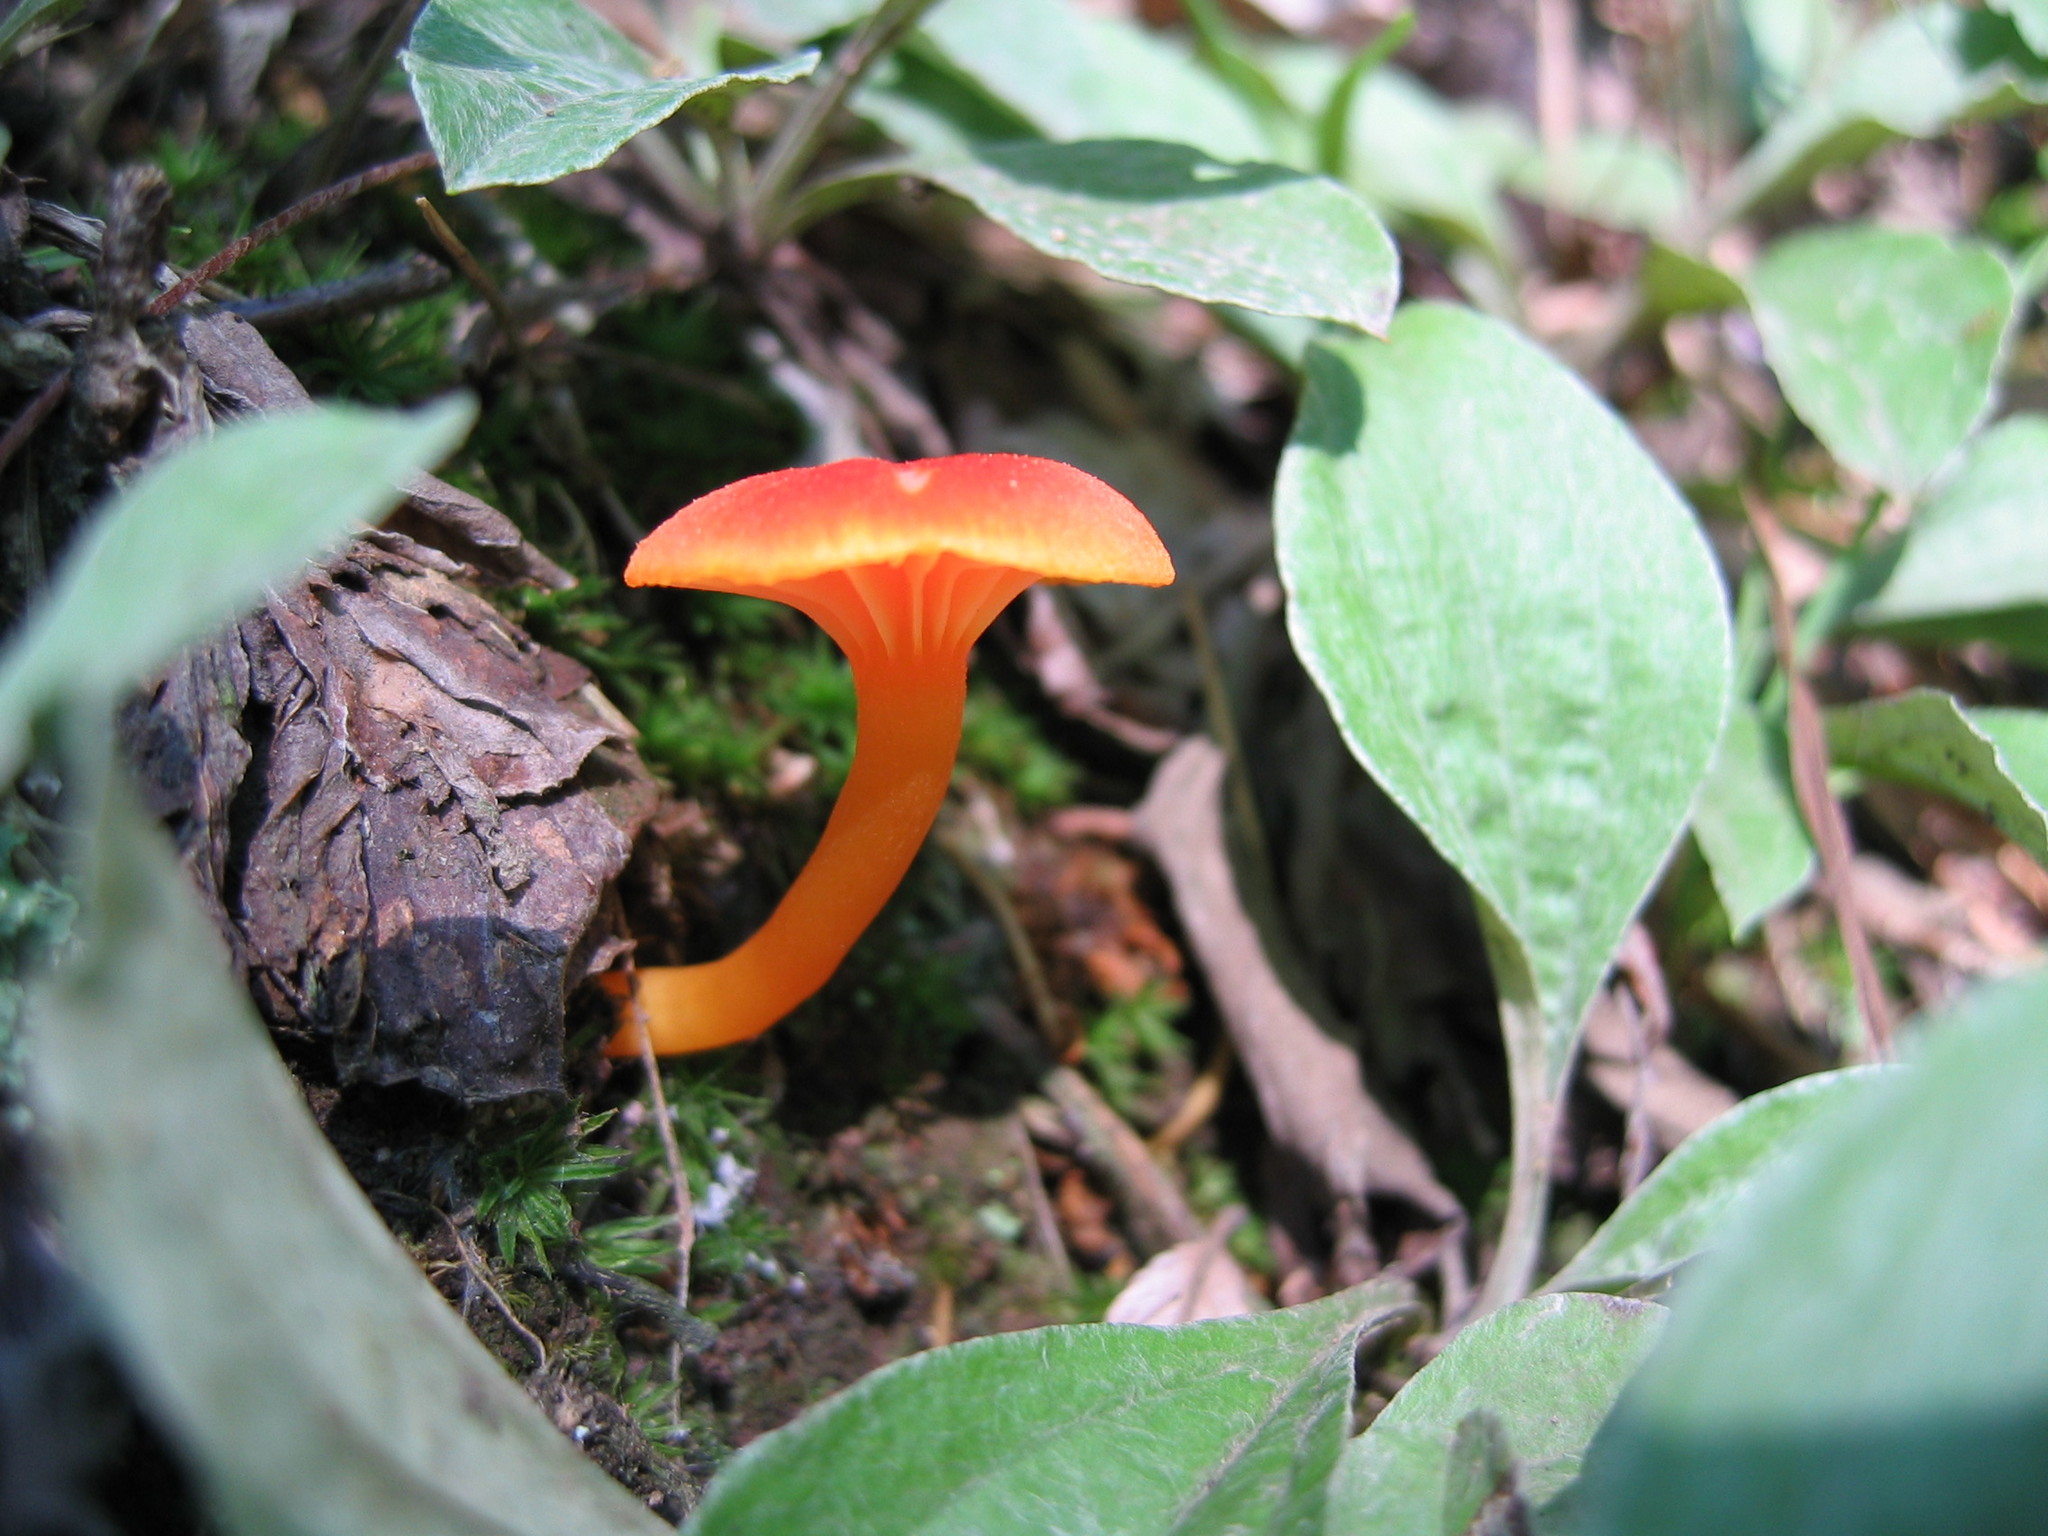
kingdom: Fungi
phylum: Basidiomycota
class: Agaricomycetes
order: Agaricales
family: Hygrophoraceae
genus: Hygrocybe
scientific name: Hygrocybe cantharellus
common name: Goblet waxcap
